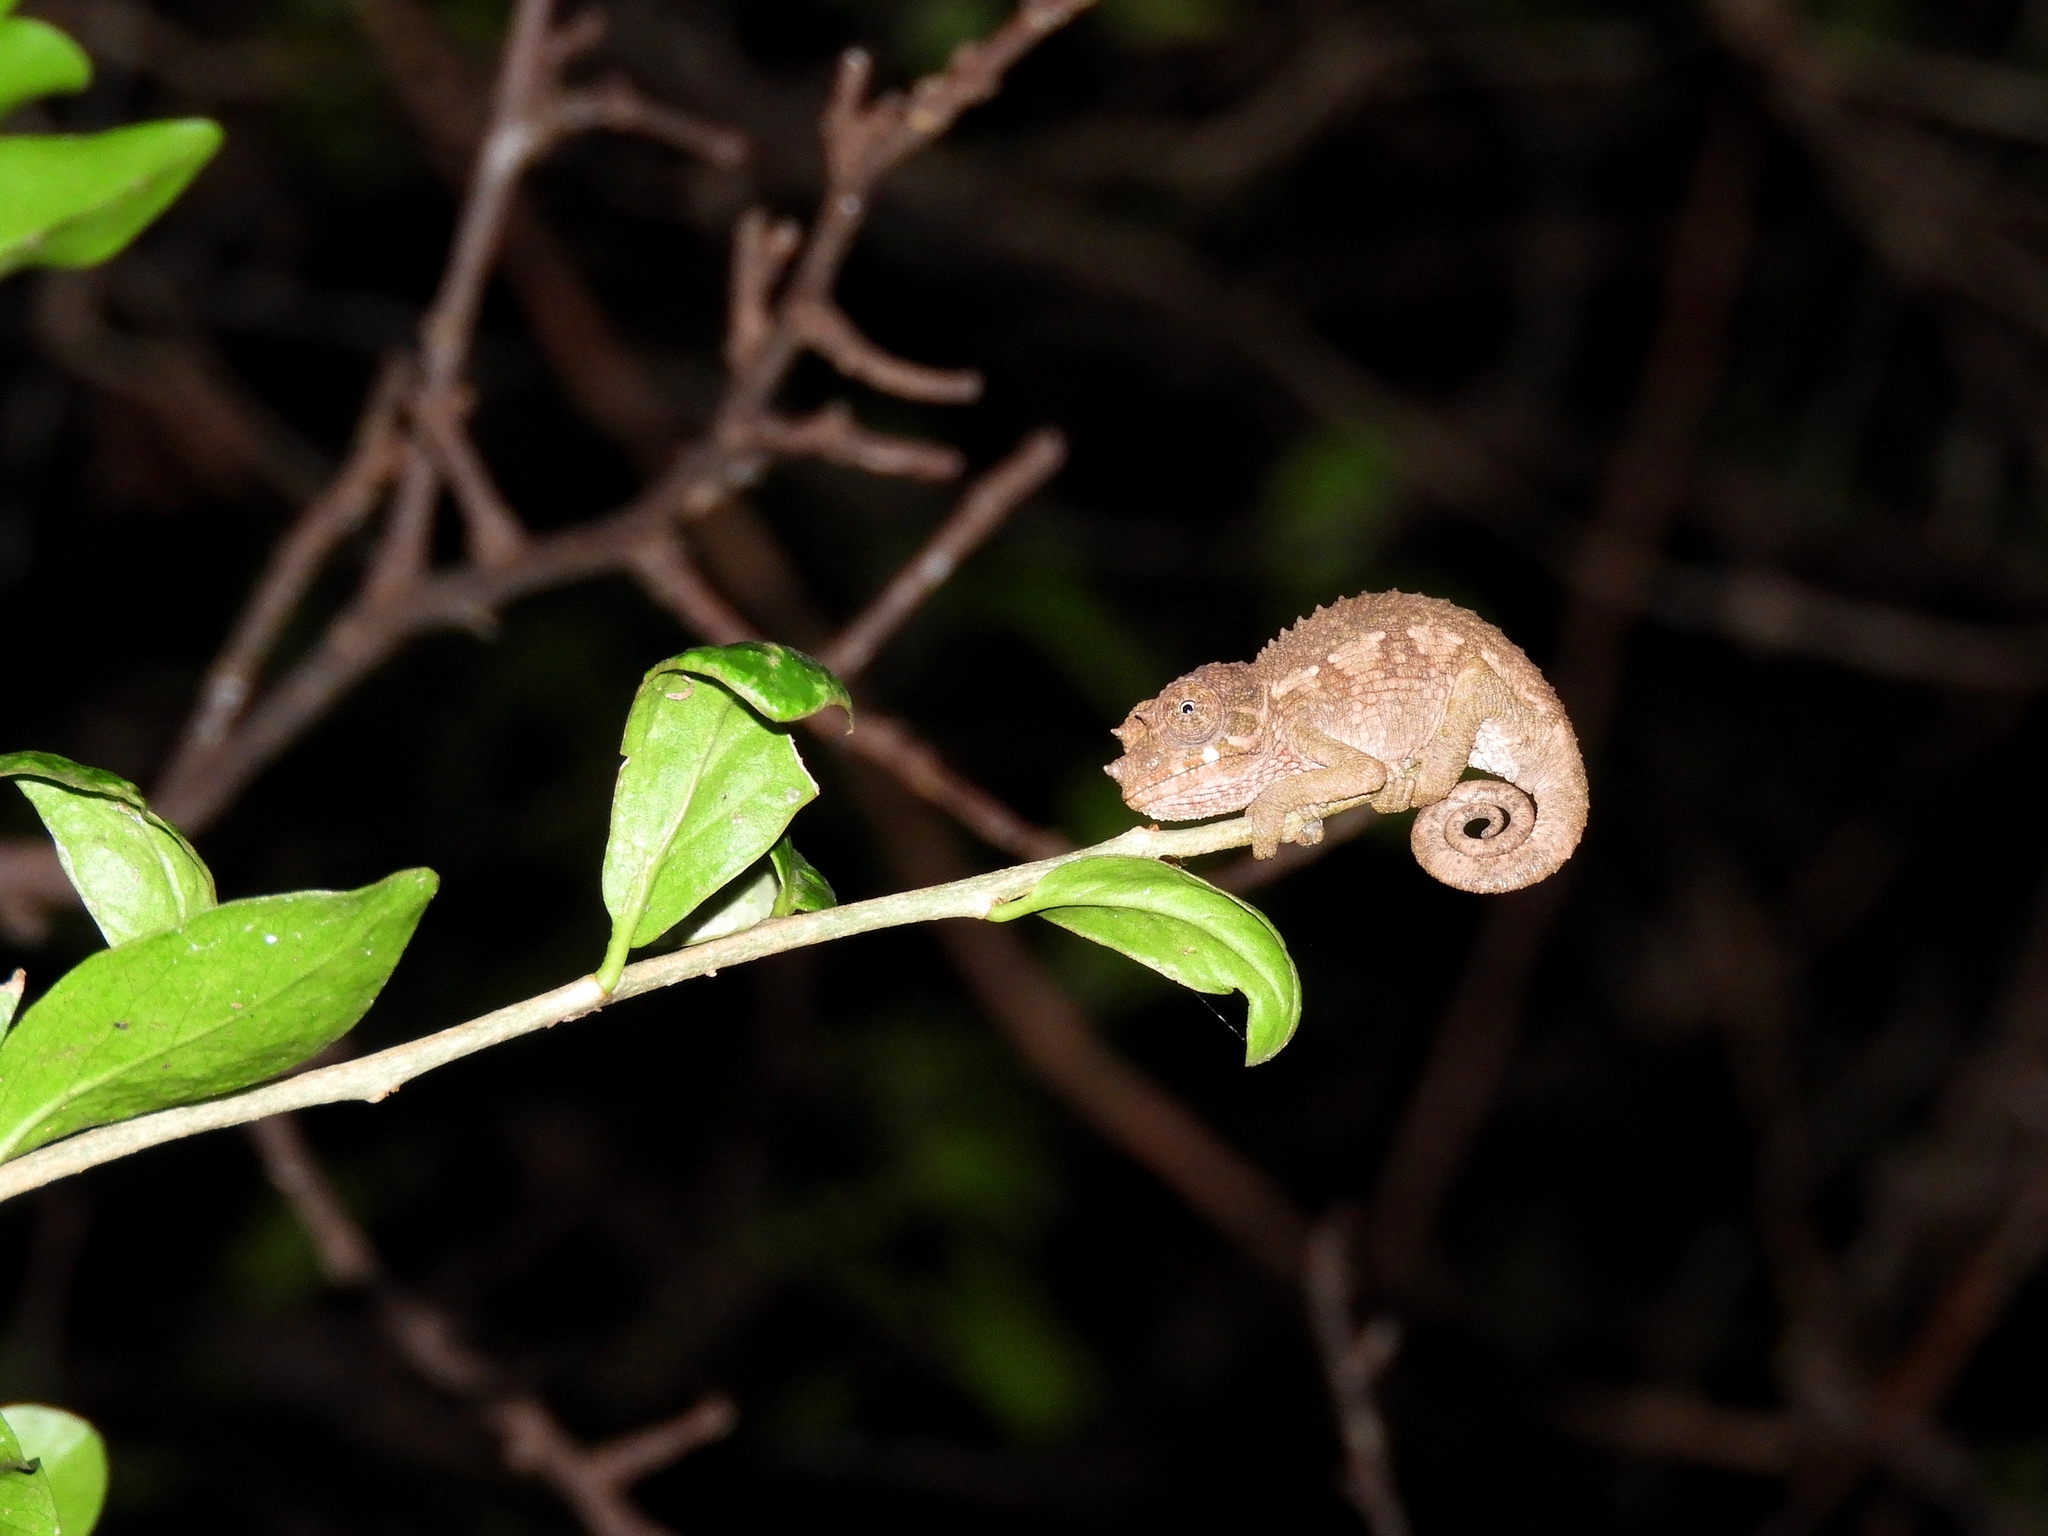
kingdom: Animalia
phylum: Chordata
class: Squamata
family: Chamaeleonidae
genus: Trioceros
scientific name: Trioceros jacksonii
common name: Jackson's chameleon
